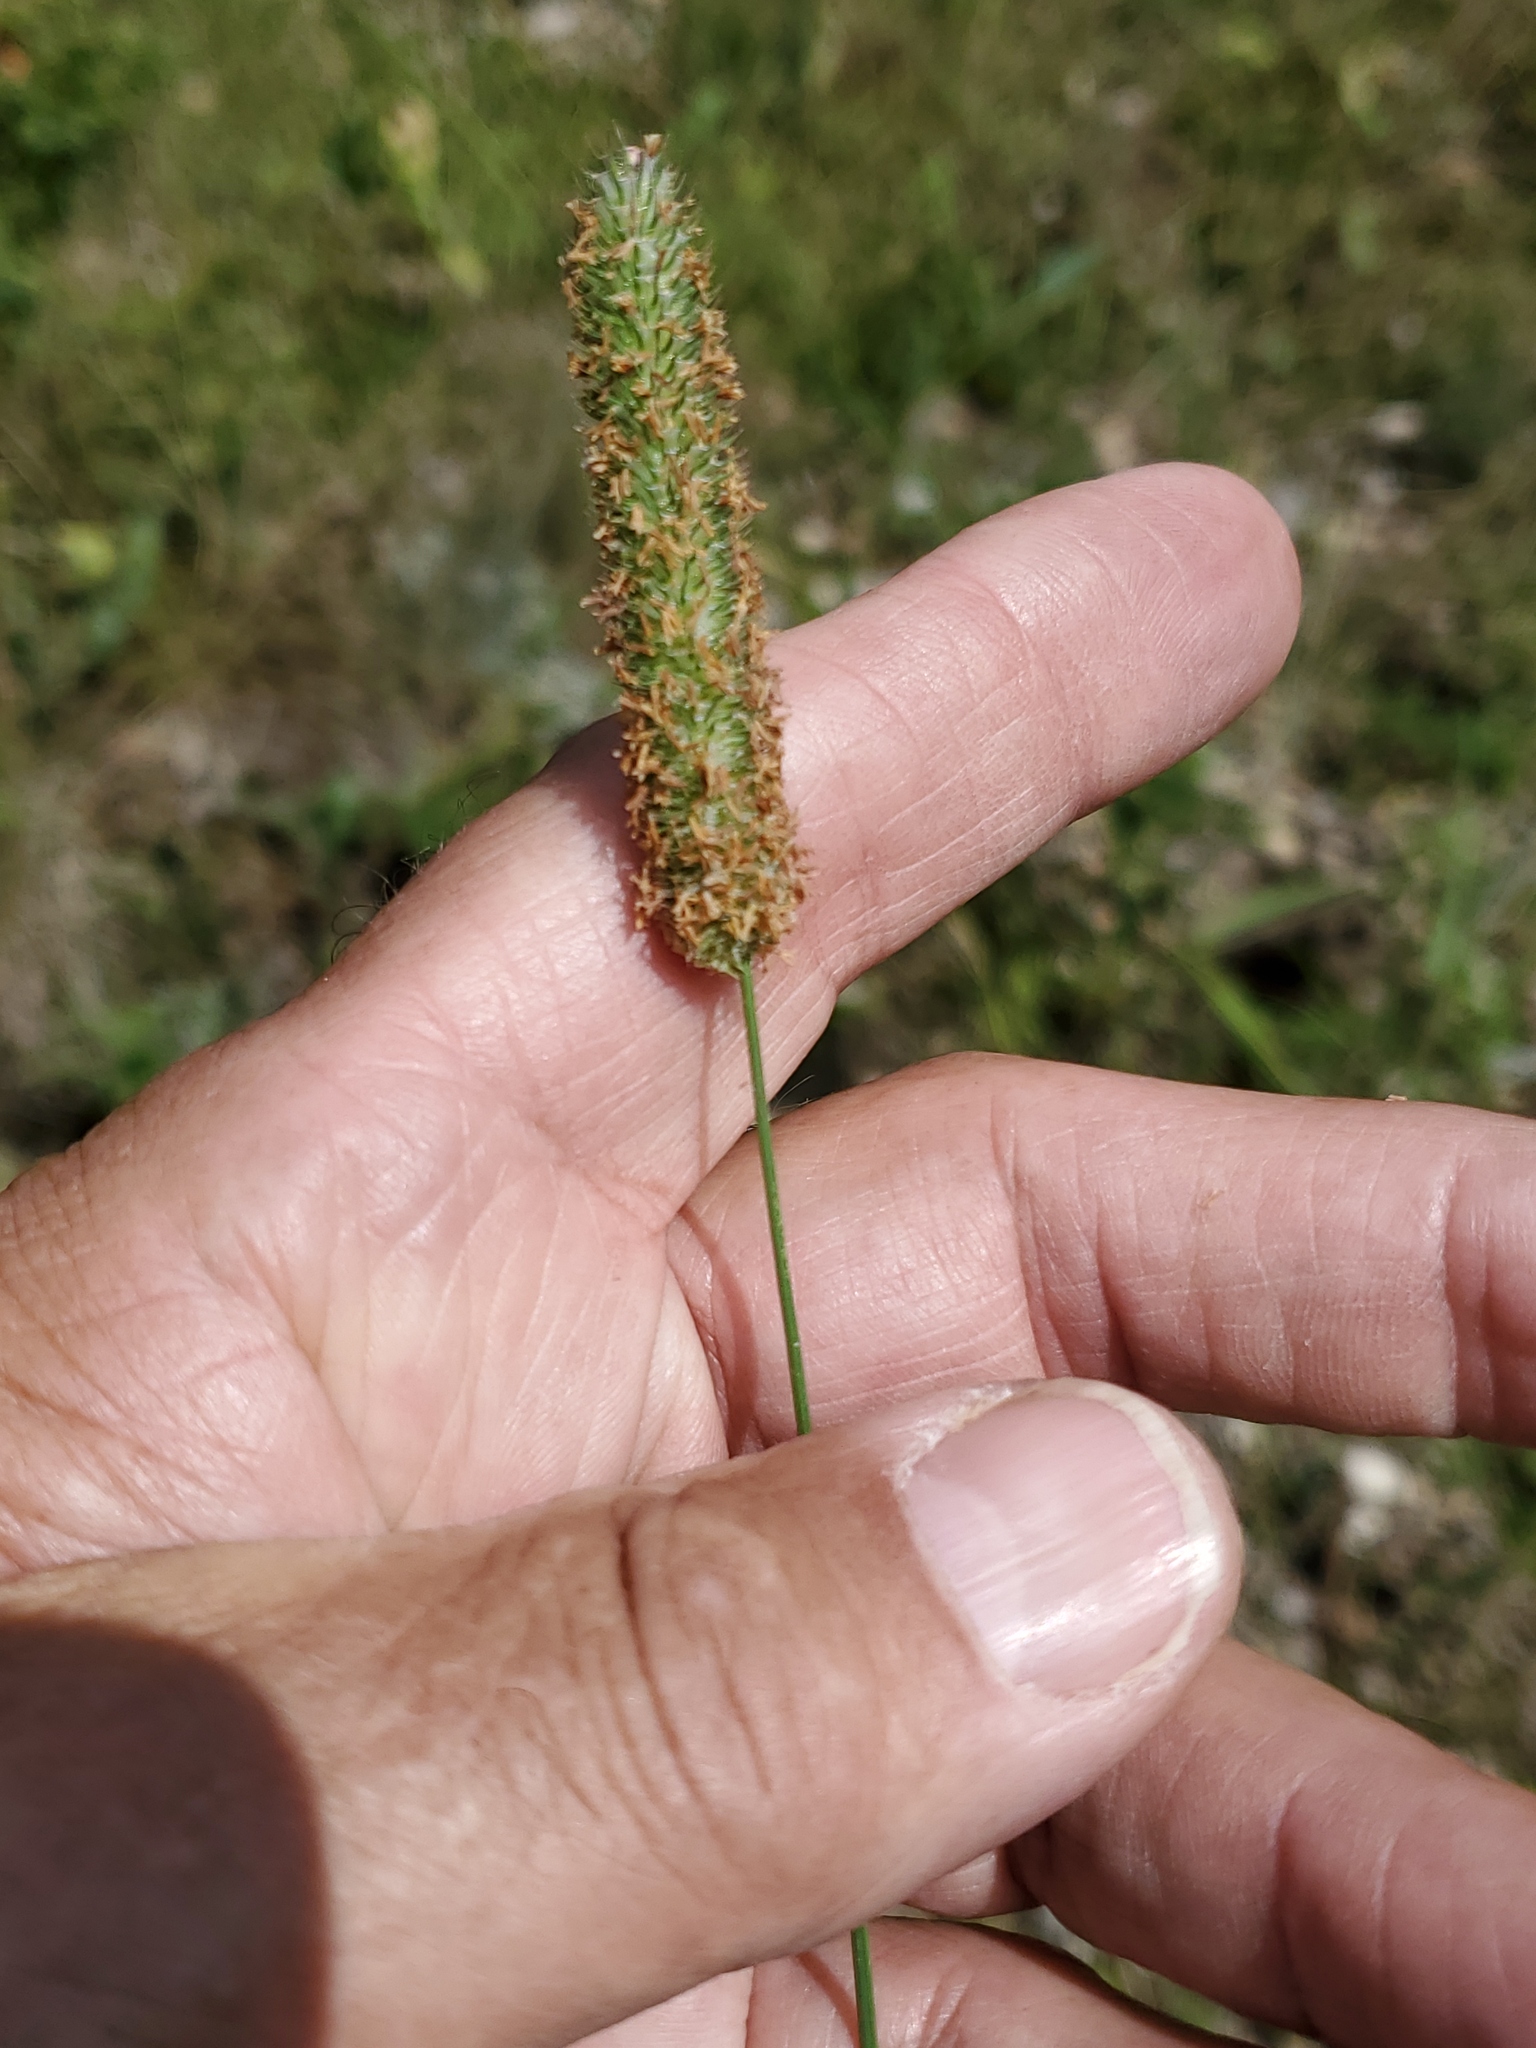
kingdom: Plantae
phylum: Tracheophyta
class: Liliopsida
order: Poales
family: Poaceae
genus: Phleum
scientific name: Phleum pratense
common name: Timothy grass
